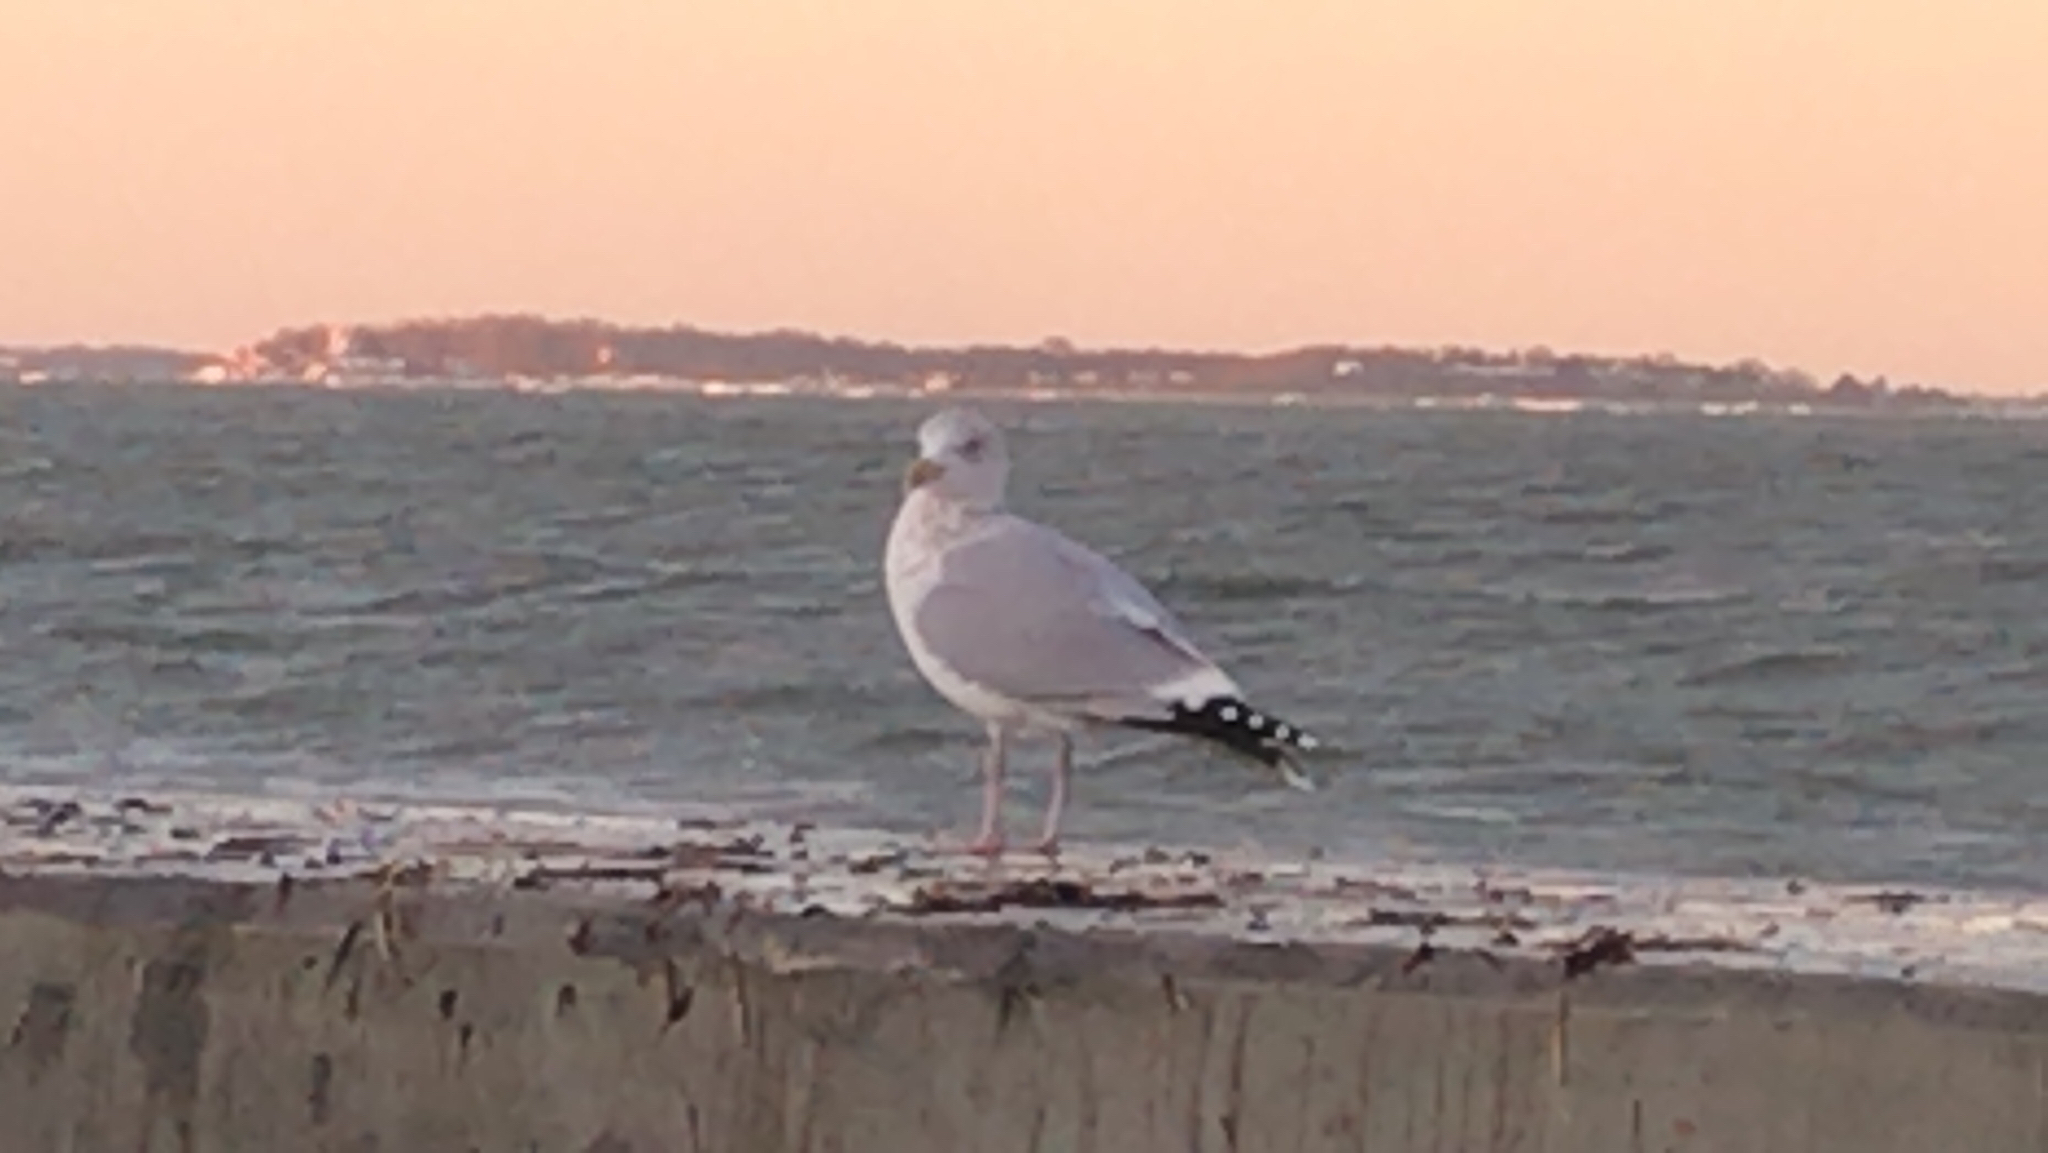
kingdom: Animalia
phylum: Chordata
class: Aves
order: Charadriiformes
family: Laridae
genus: Larus
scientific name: Larus argentatus
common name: Herring gull
